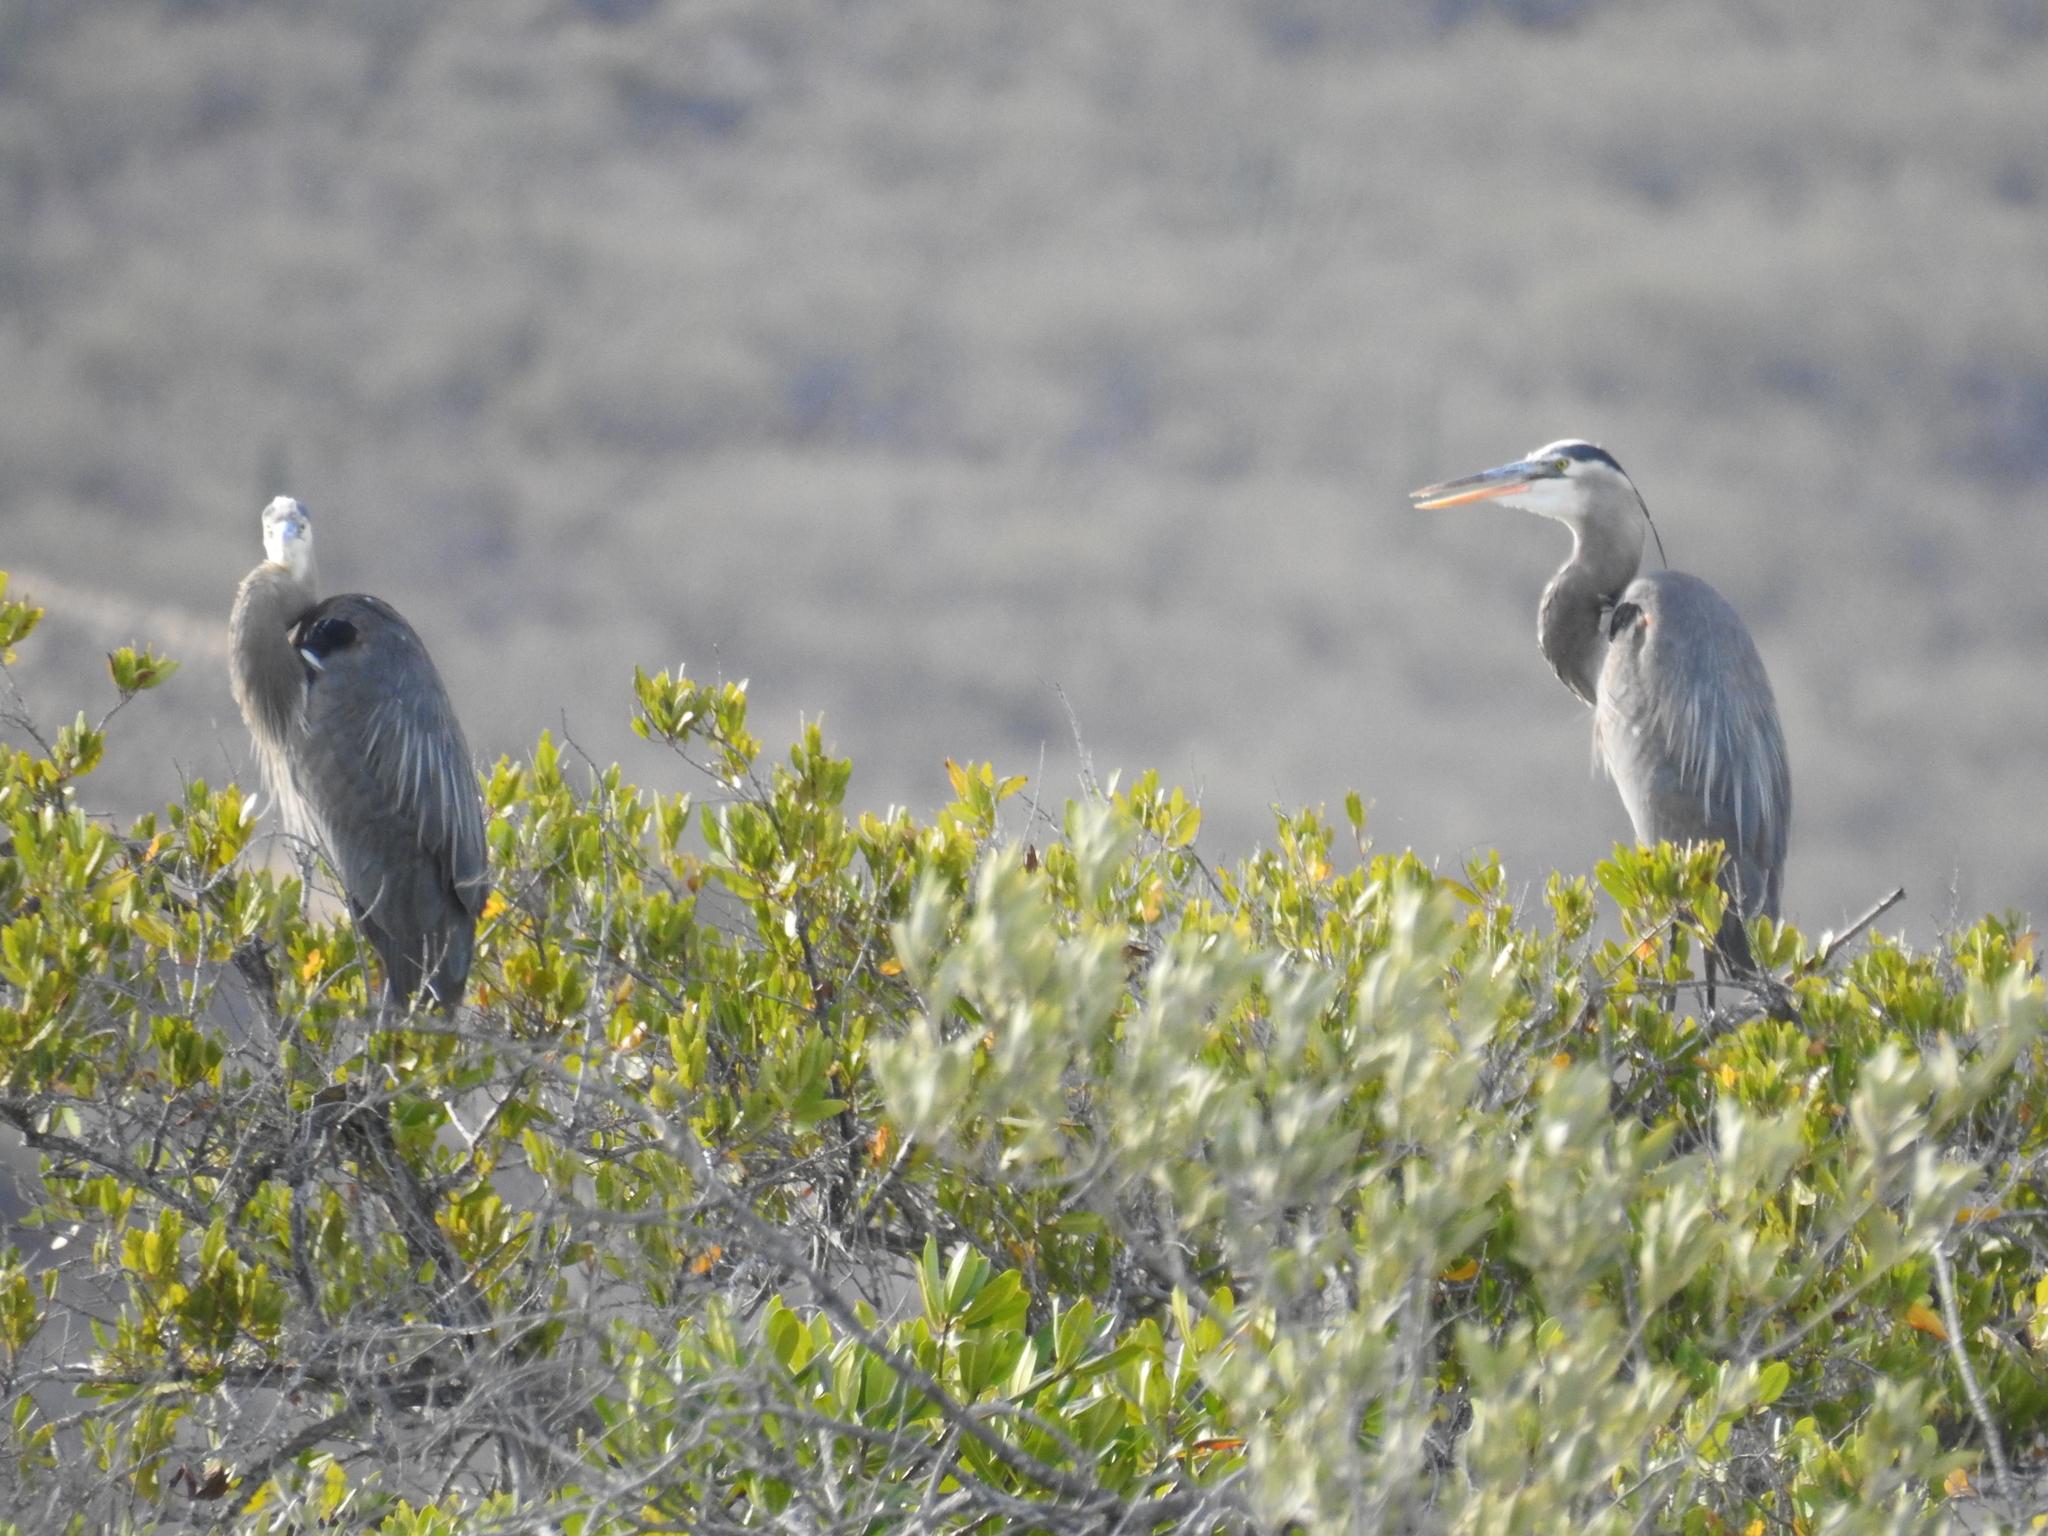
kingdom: Animalia
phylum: Chordata
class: Aves
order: Pelecaniformes
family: Ardeidae
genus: Ardea
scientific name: Ardea herodias
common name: Great blue heron
